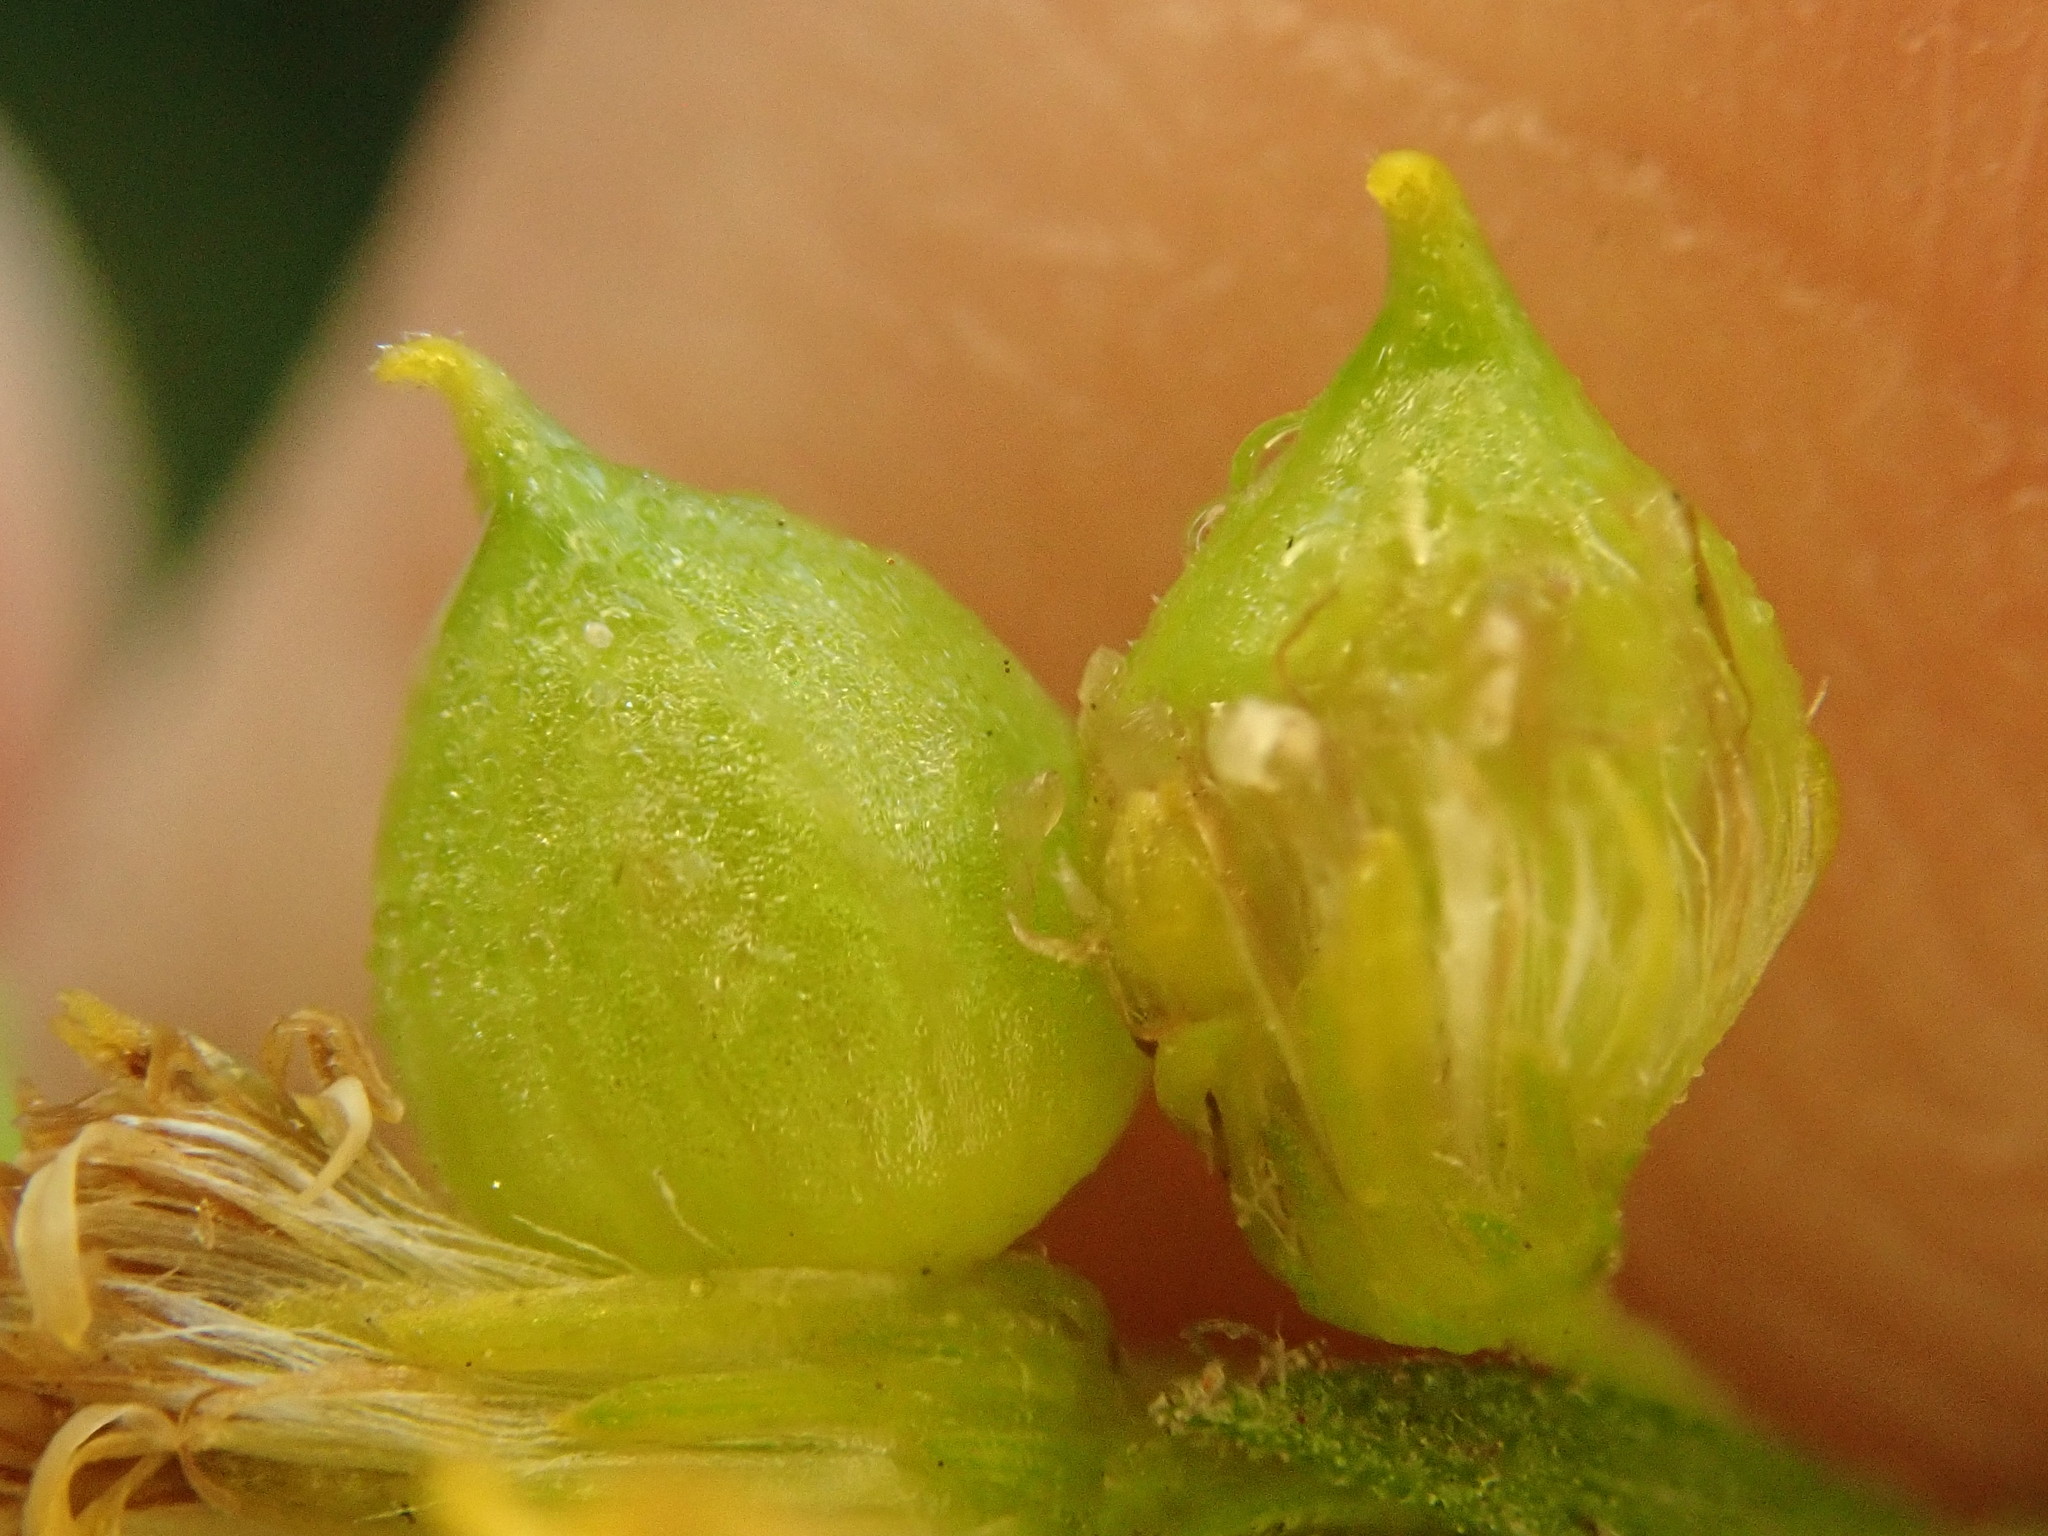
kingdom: Animalia
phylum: Arthropoda
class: Insecta
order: Diptera
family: Cecidomyiidae
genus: Schizomyia
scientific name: Schizomyia racemicola
